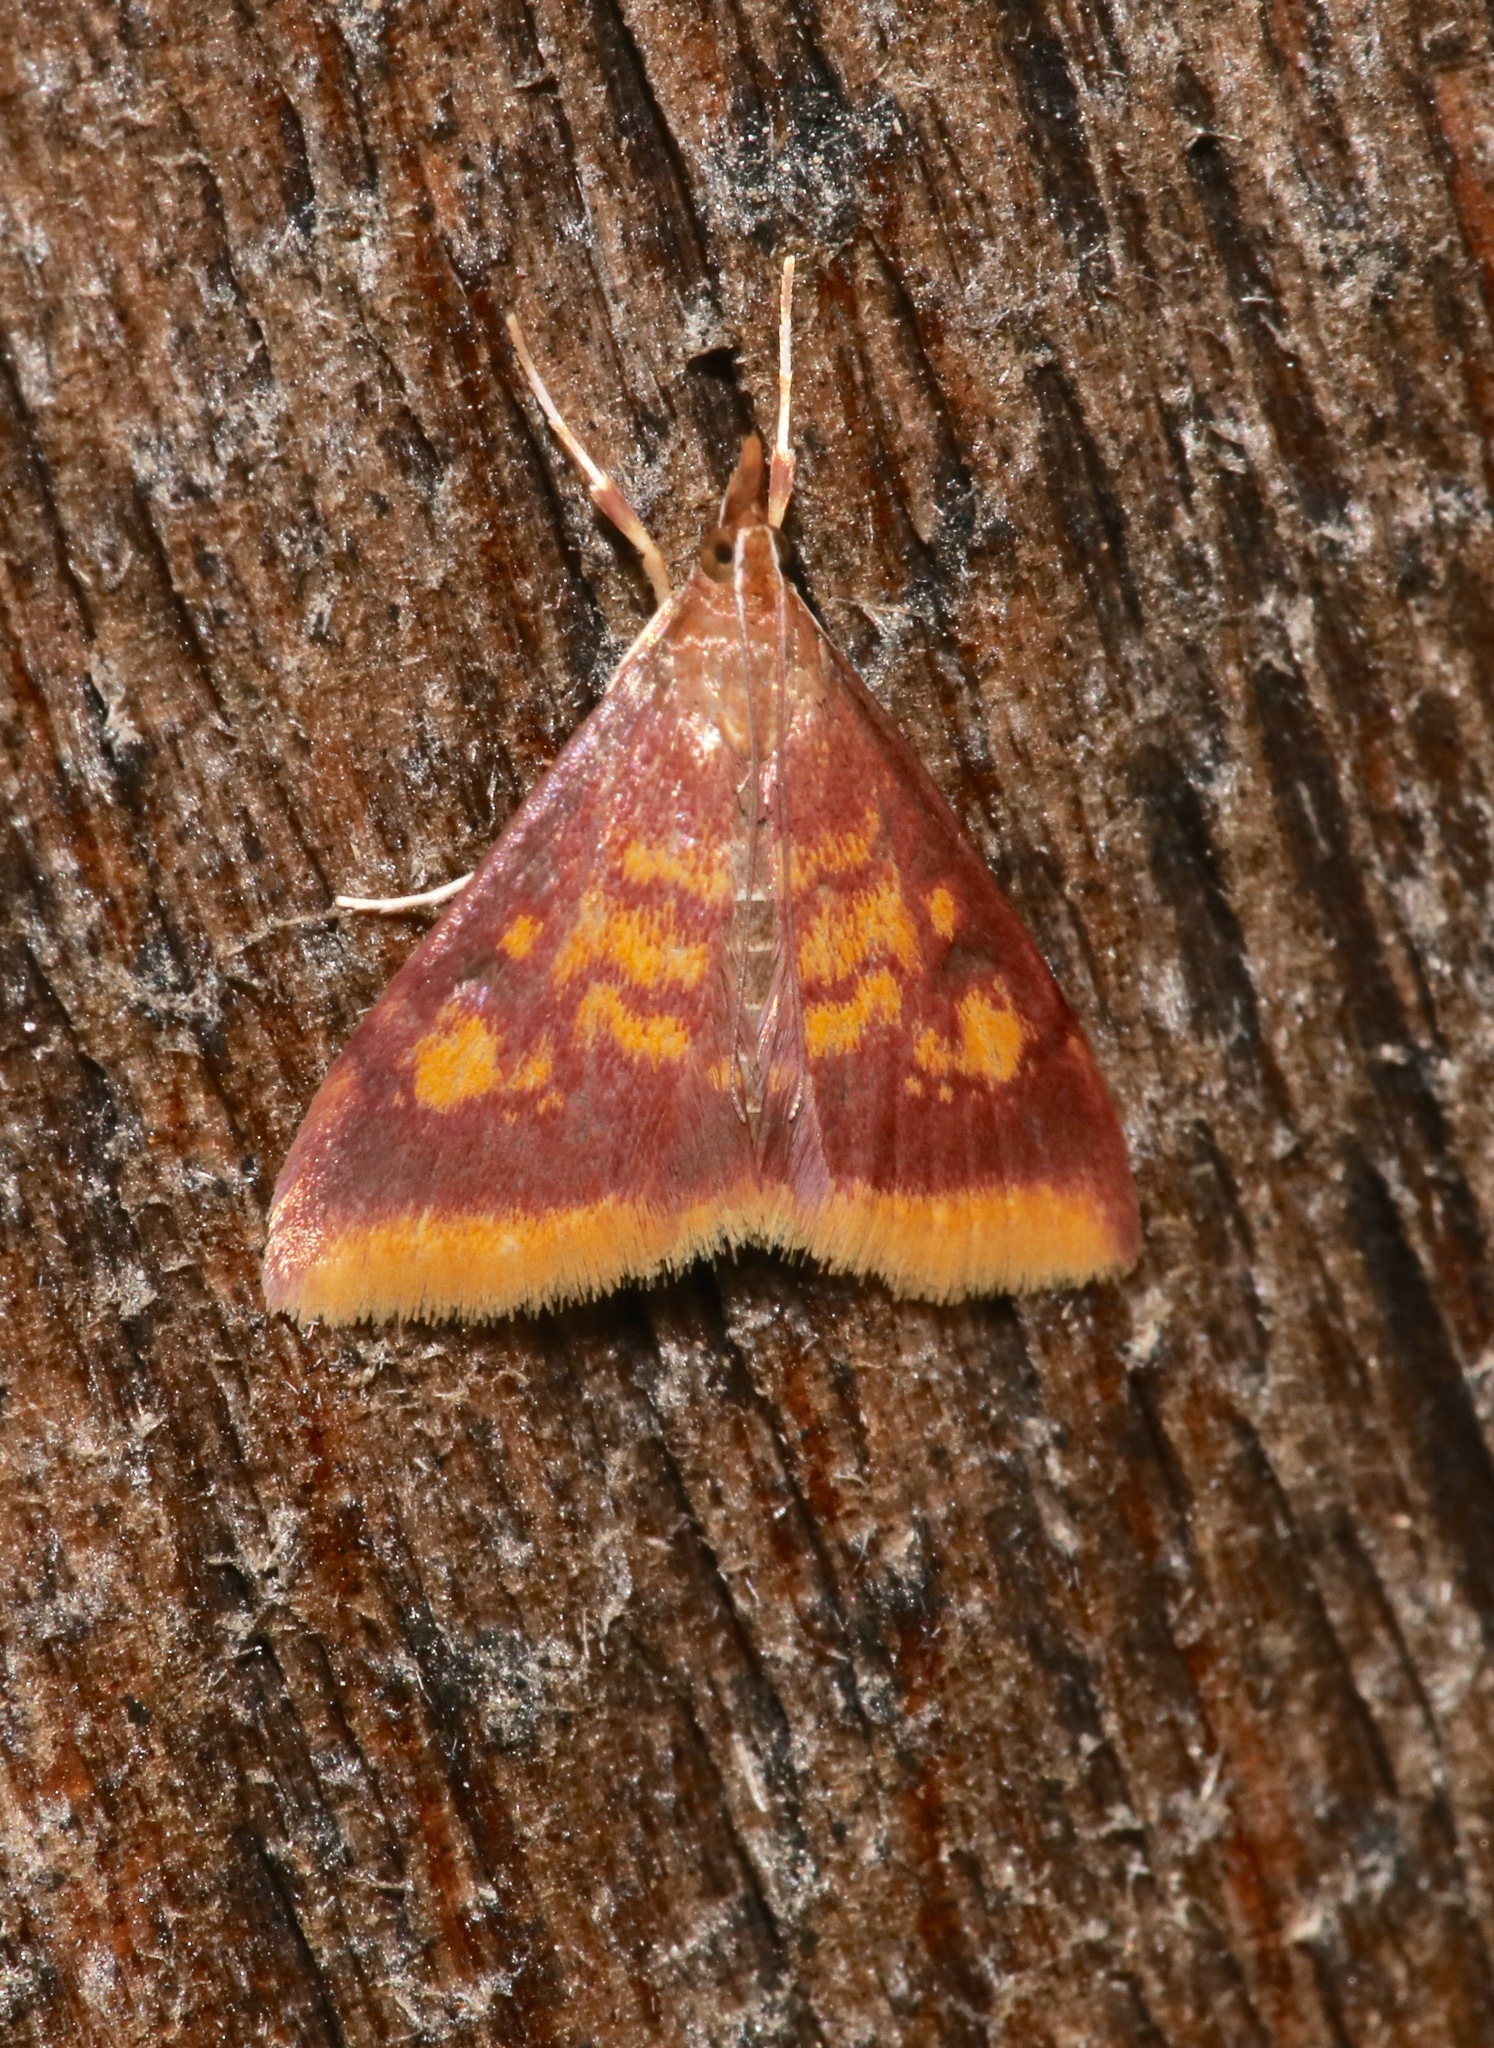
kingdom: Animalia
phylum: Arthropoda
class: Insecta
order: Lepidoptera
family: Crambidae
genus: Pyrausta
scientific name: Pyrausta acrionalis
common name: Mint-loving pyrausta moth
